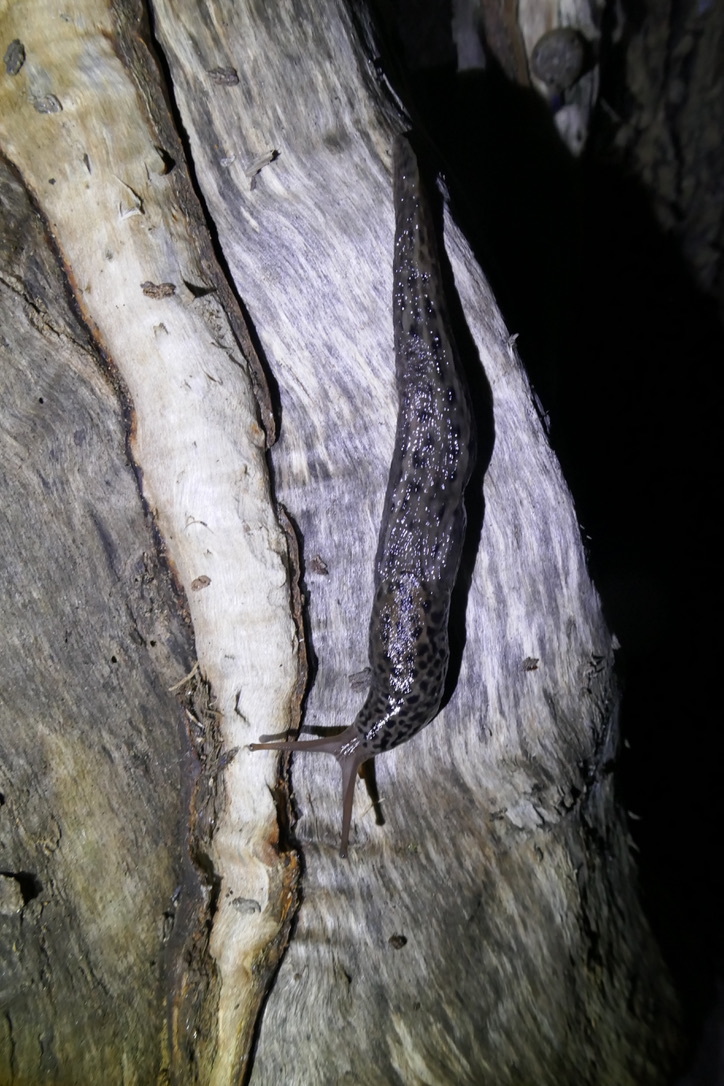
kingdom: Animalia
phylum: Mollusca
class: Gastropoda
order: Stylommatophora
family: Limacidae
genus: Limax
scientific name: Limax maximus
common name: Great grey slug
